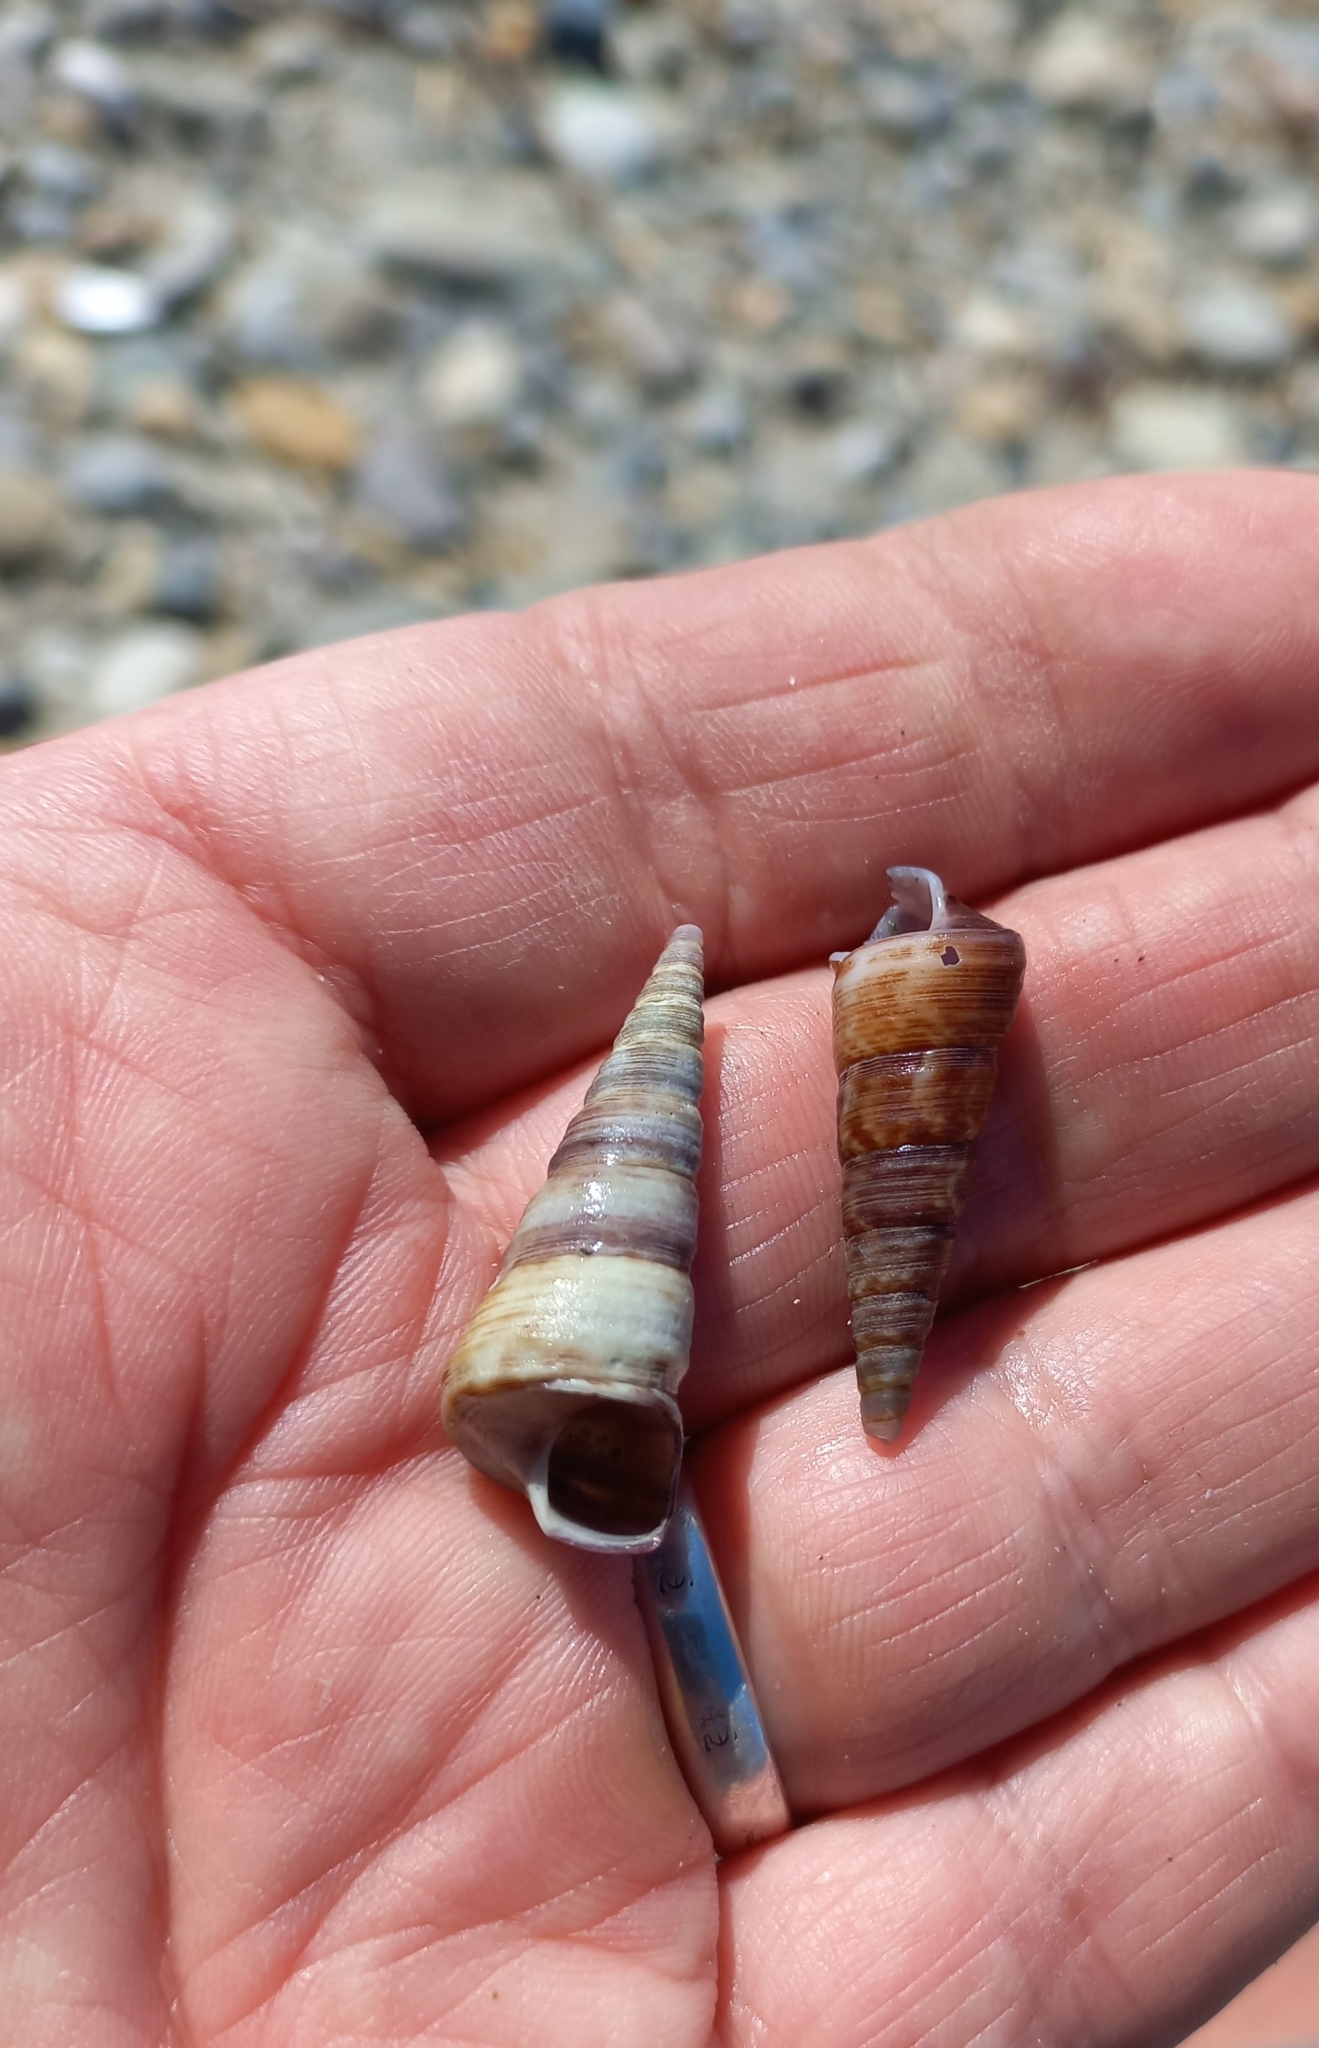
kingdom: Animalia
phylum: Mollusca
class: Gastropoda
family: Turritellidae
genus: Maoricolpus
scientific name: Maoricolpus roseus
